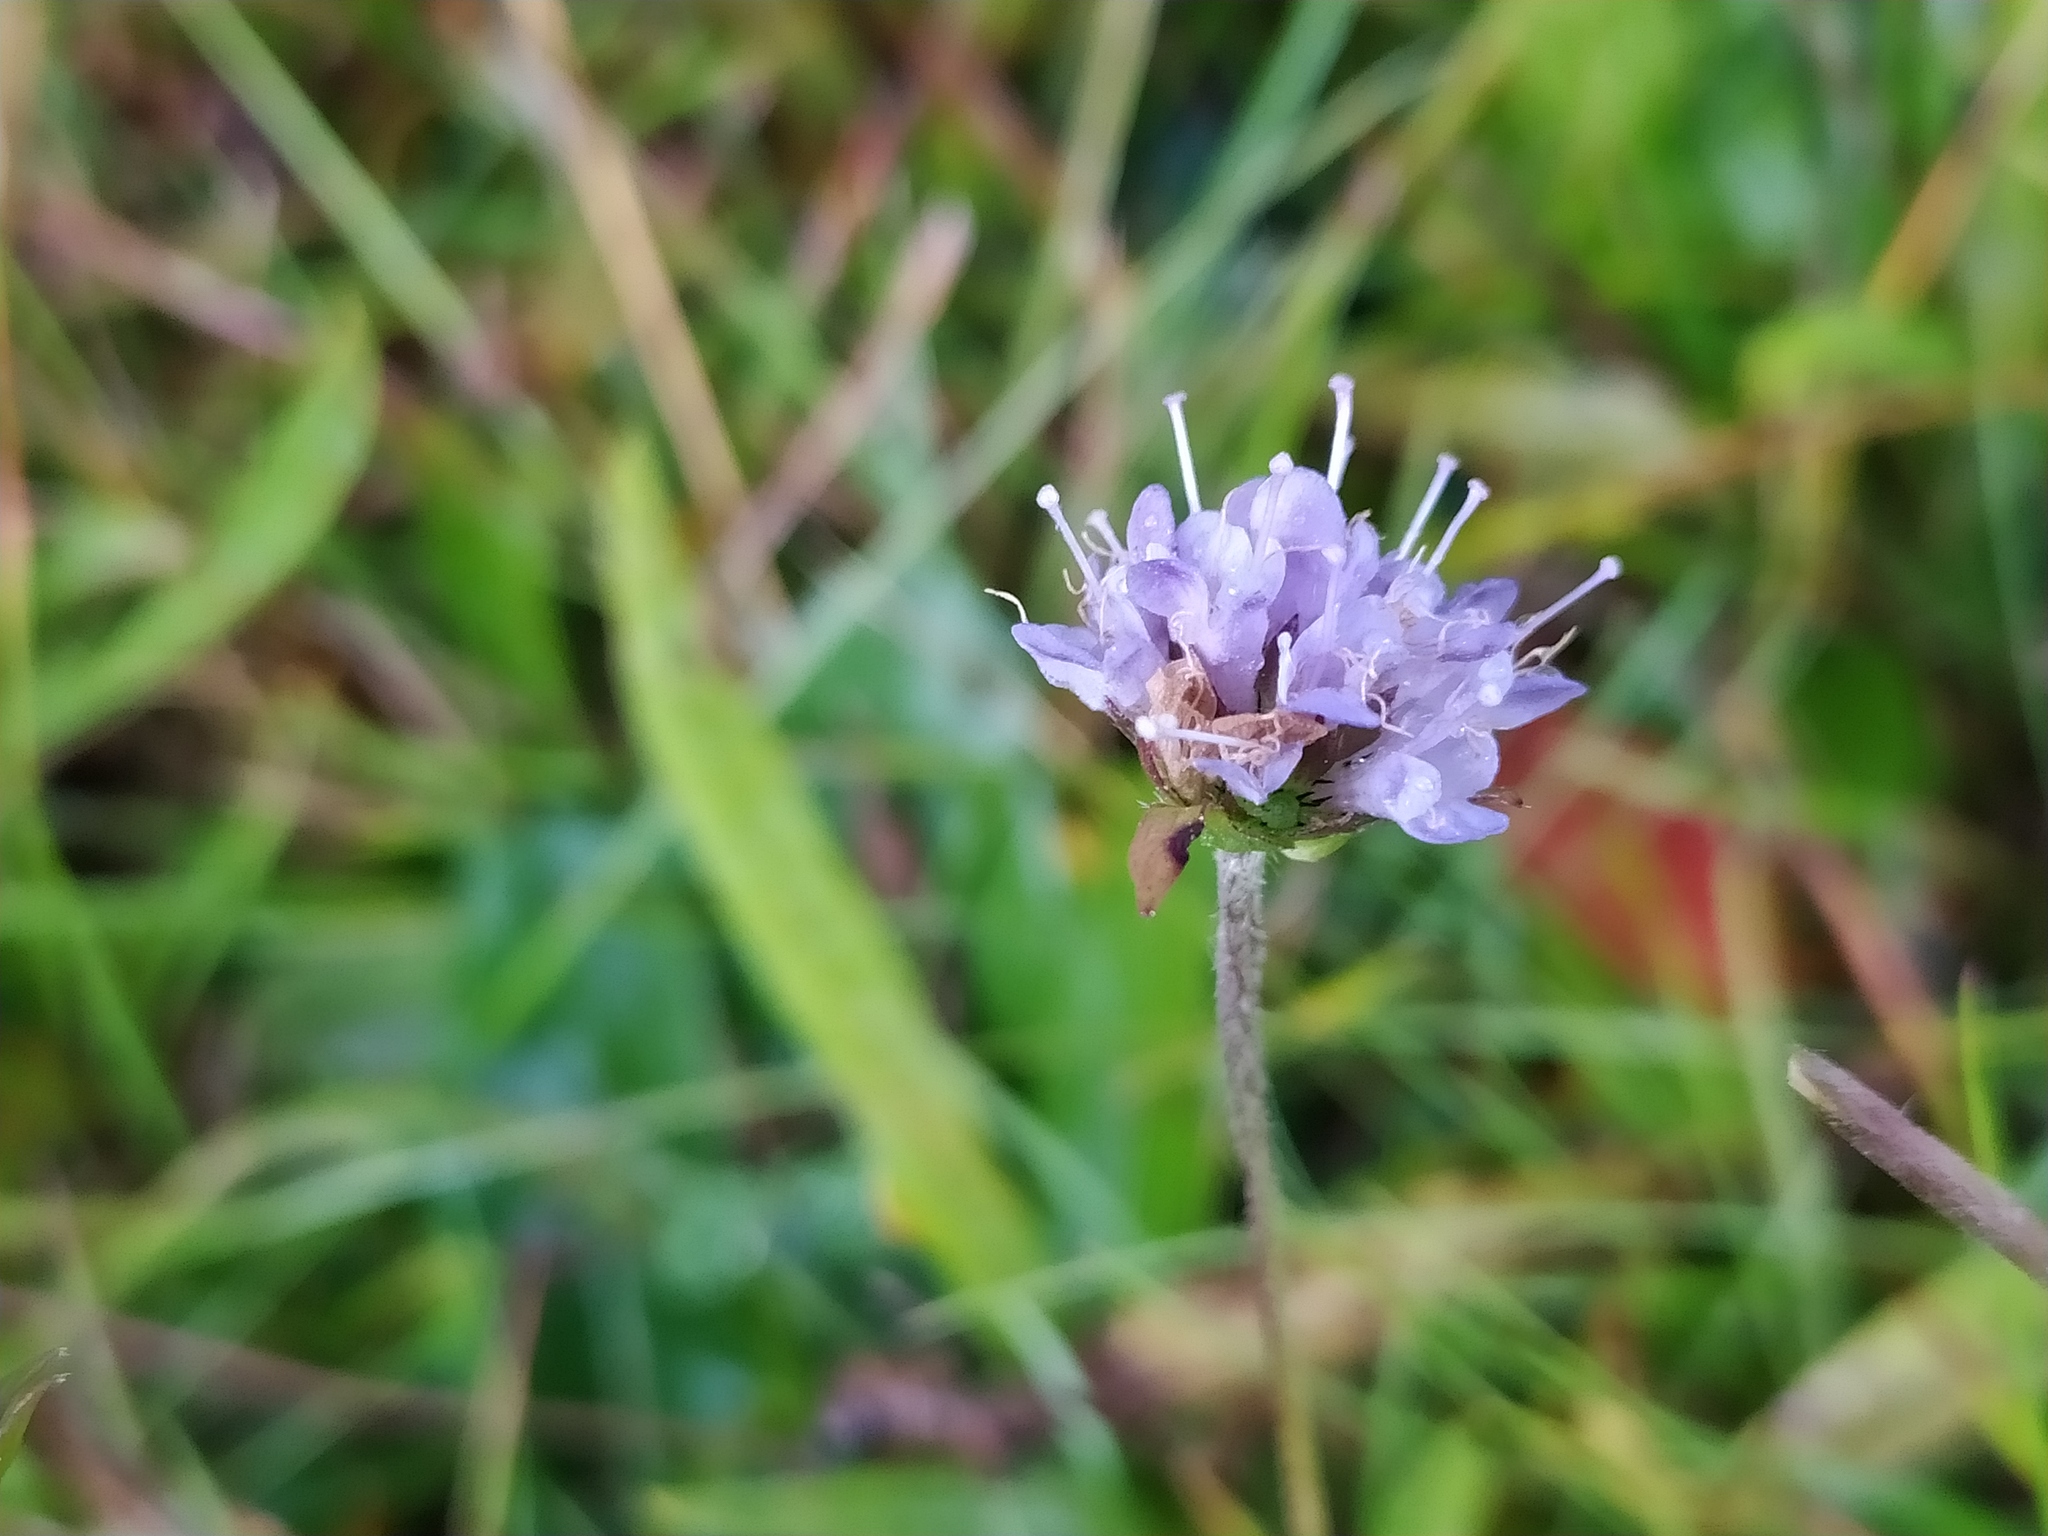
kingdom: Plantae
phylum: Tracheophyta
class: Magnoliopsida
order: Dipsacales
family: Caprifoliaceae
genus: Succisa
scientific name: Succisa pratensis
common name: Devil's-bit
